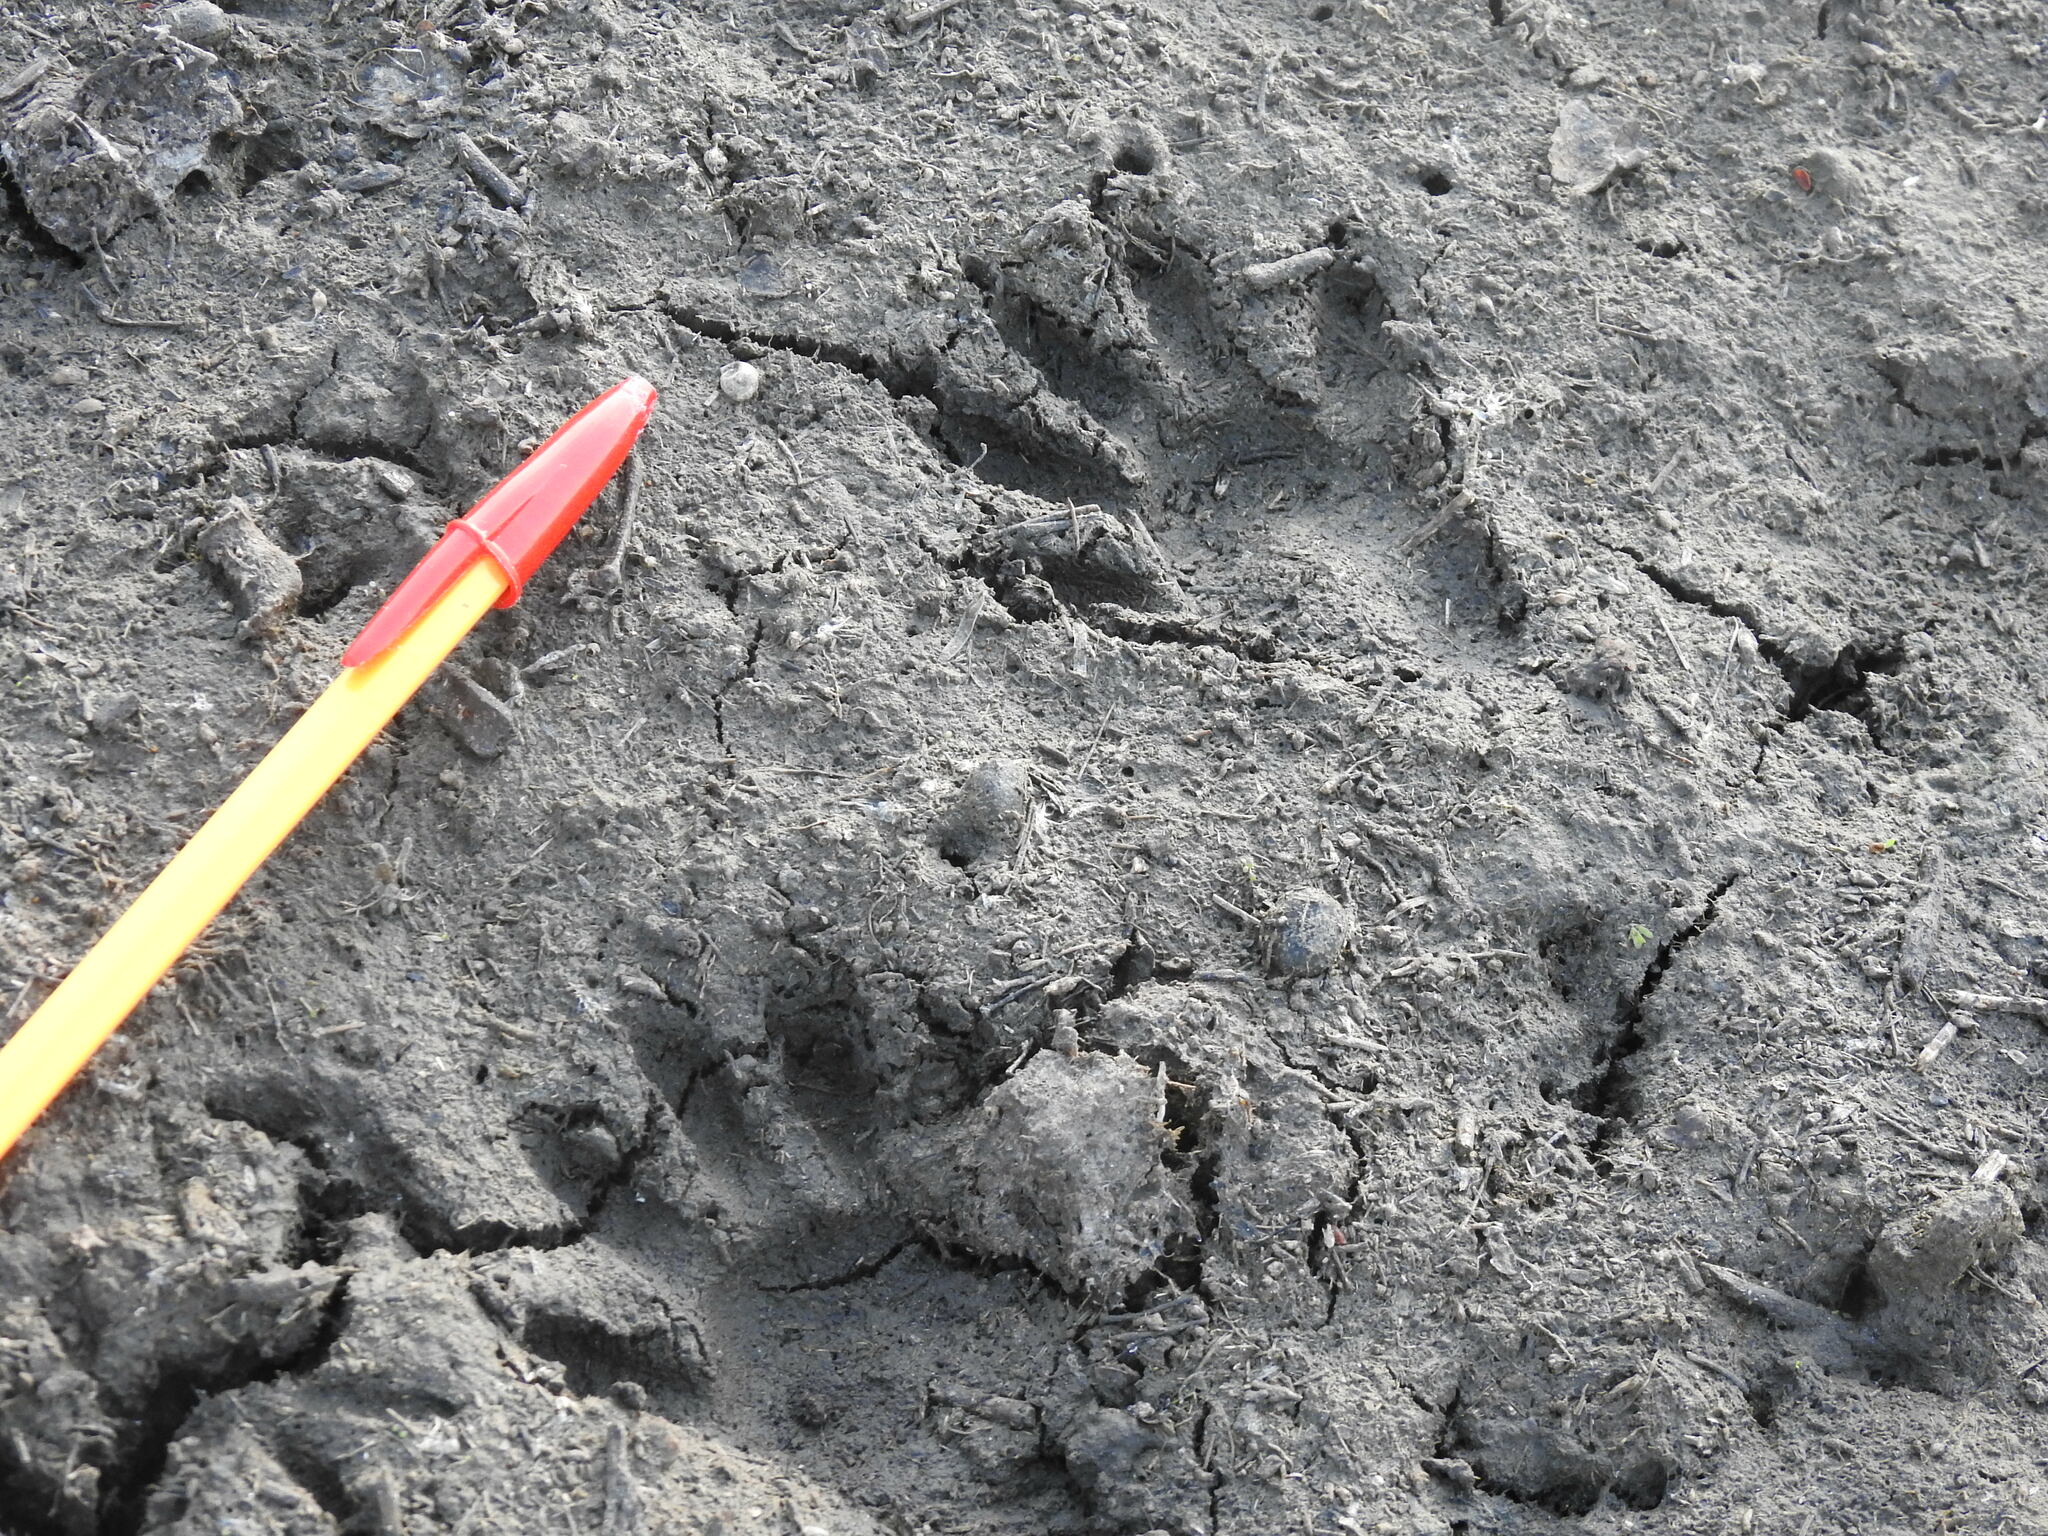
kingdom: Animalia
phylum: Chordata
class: Mammalia
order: Carnivora
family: Procyonidae
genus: Procyon
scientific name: Procyon lotor
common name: Raccoon
